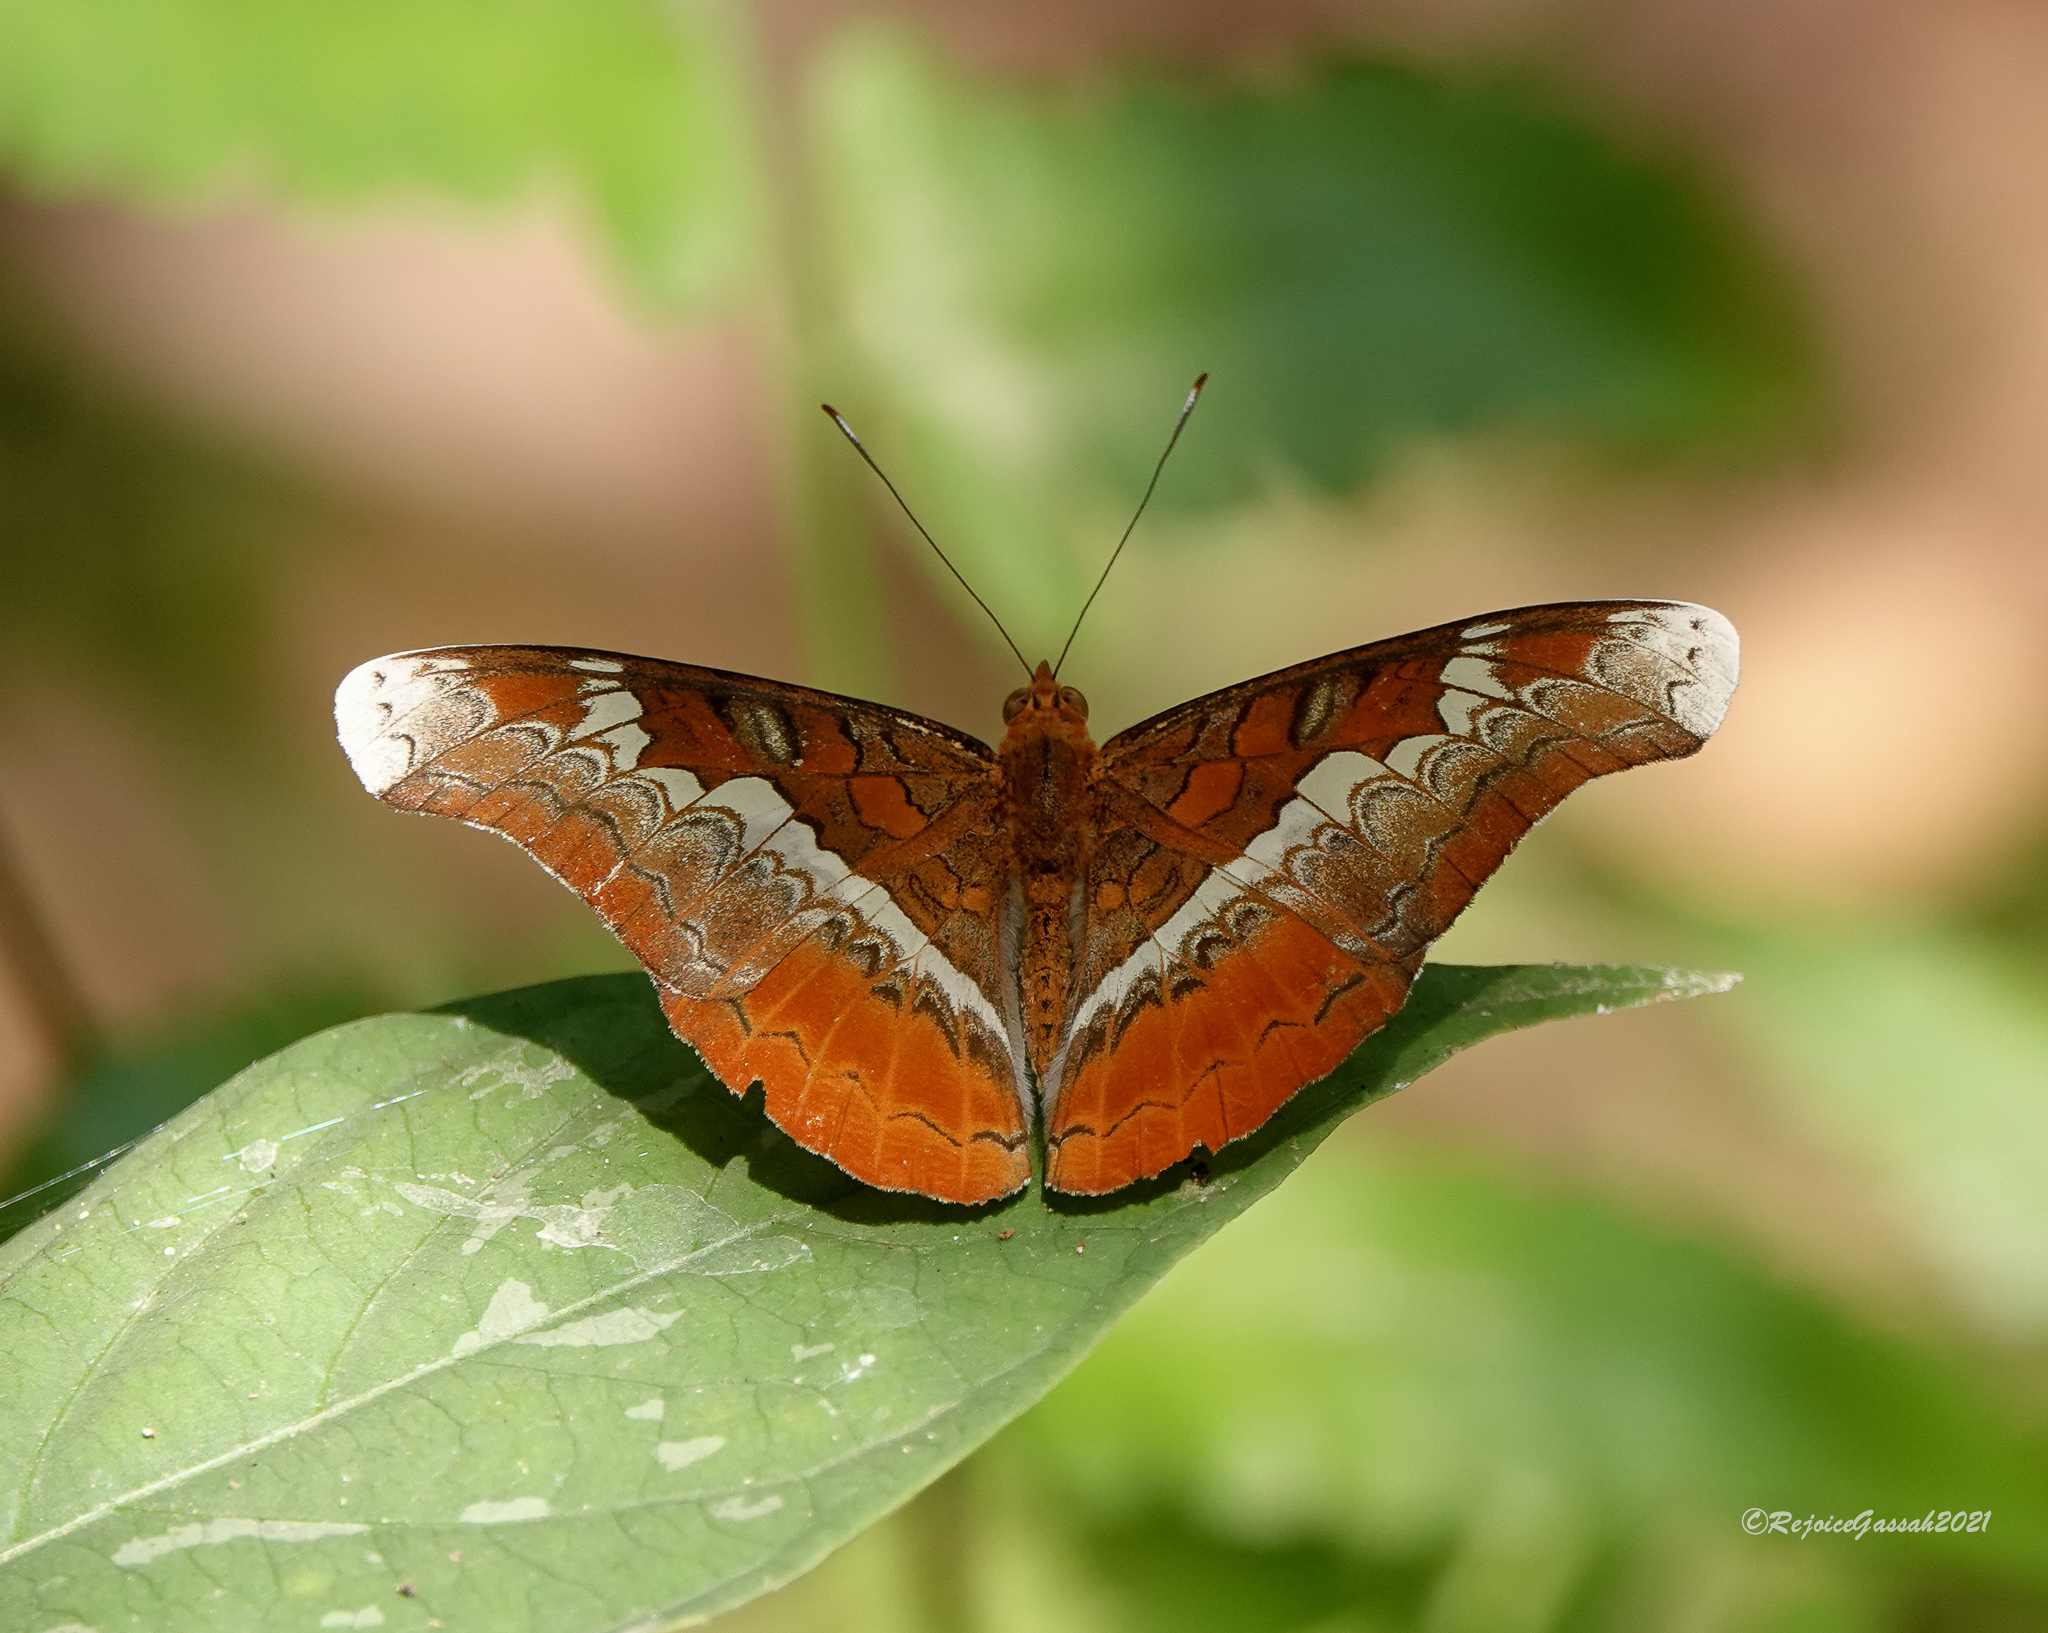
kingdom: Animalia
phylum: Arthropoda
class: Insecta
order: Lepidoptera
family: Nymphalidae
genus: Lebadea
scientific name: Lebadea martha
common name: Knight
